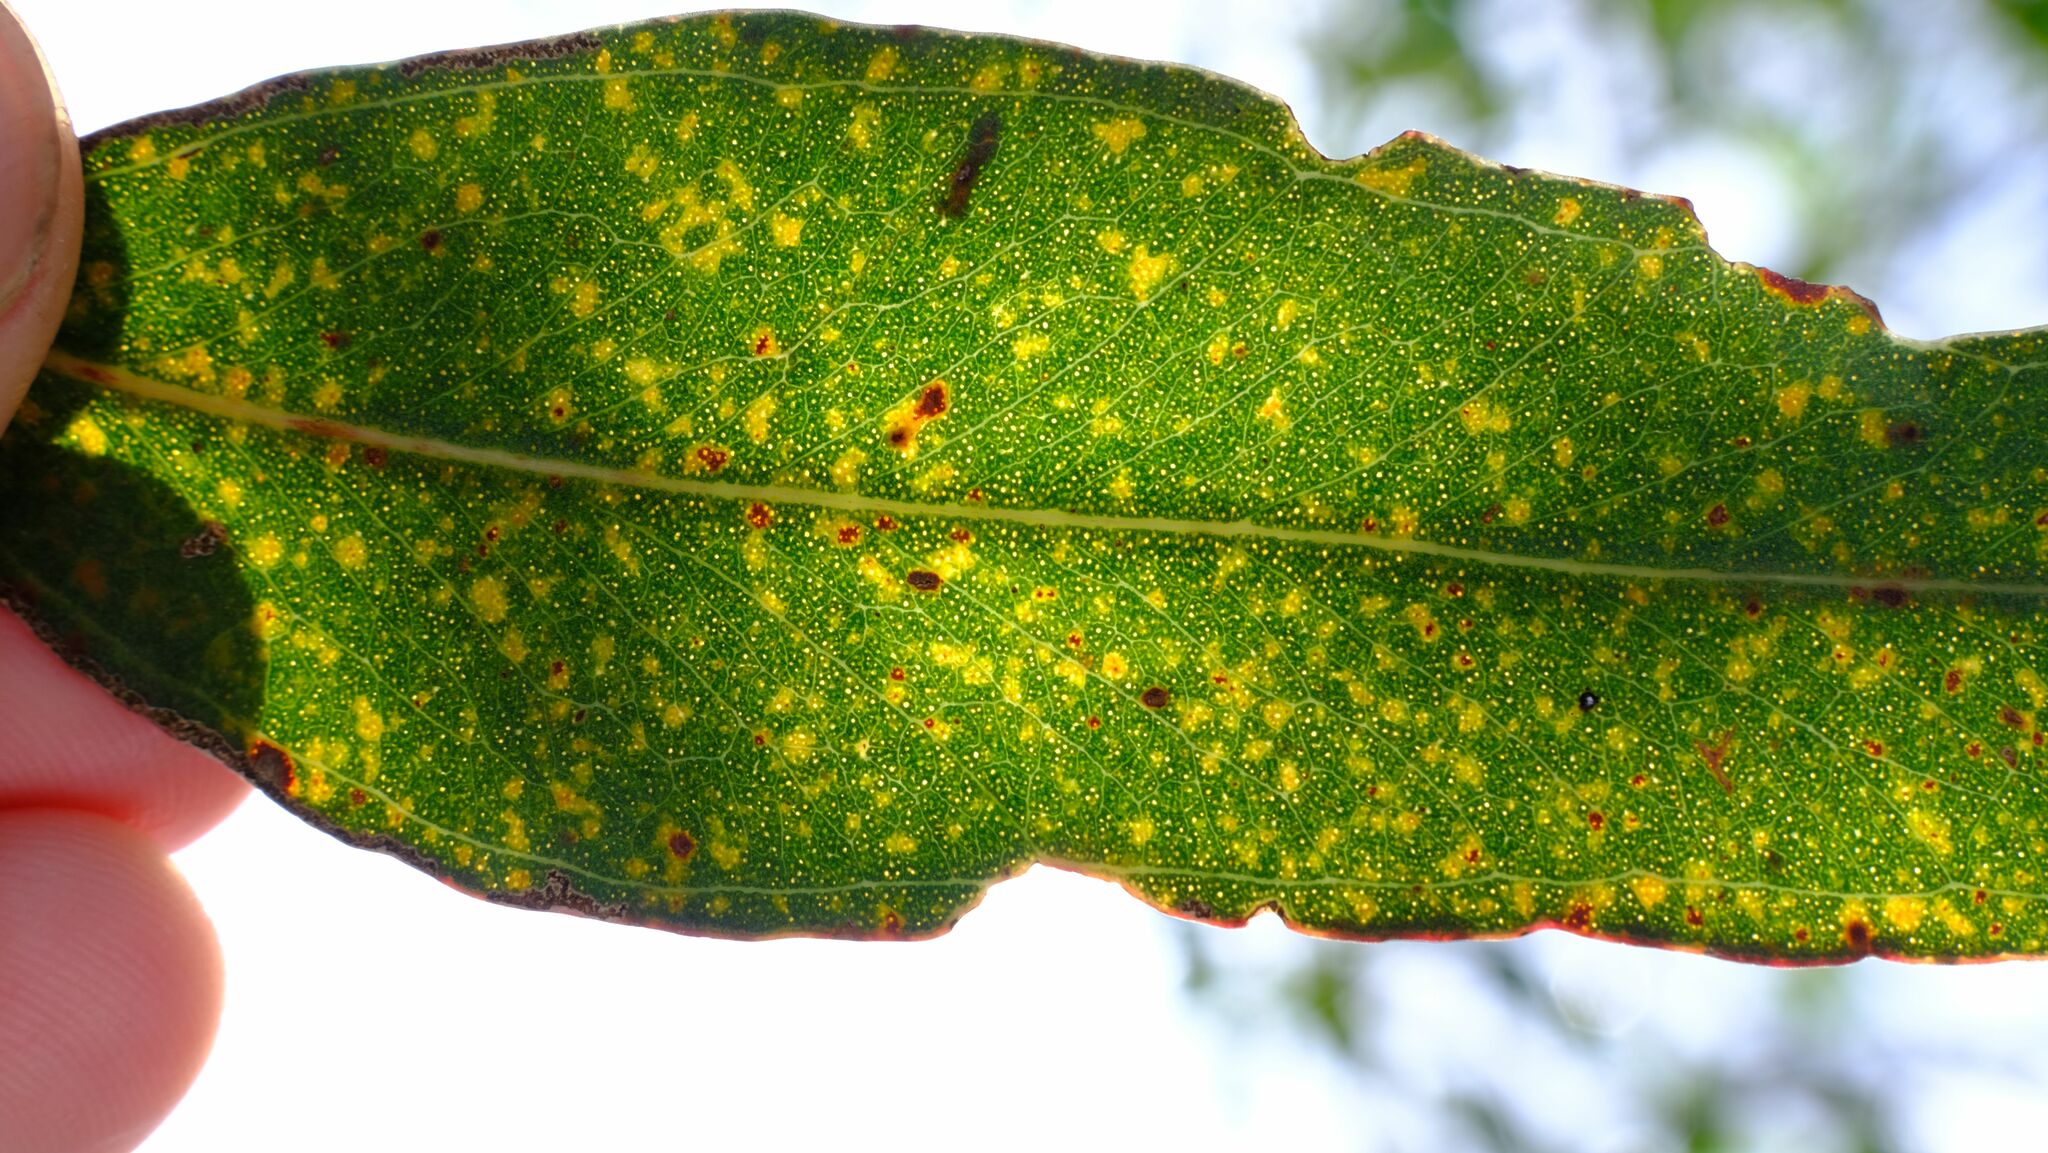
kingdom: Plantae
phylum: Tracheophyta
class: Magnoliopsida
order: Myrtales
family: Myrtaceae
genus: Eucalyptus
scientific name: Eucalyptus tricarpa
